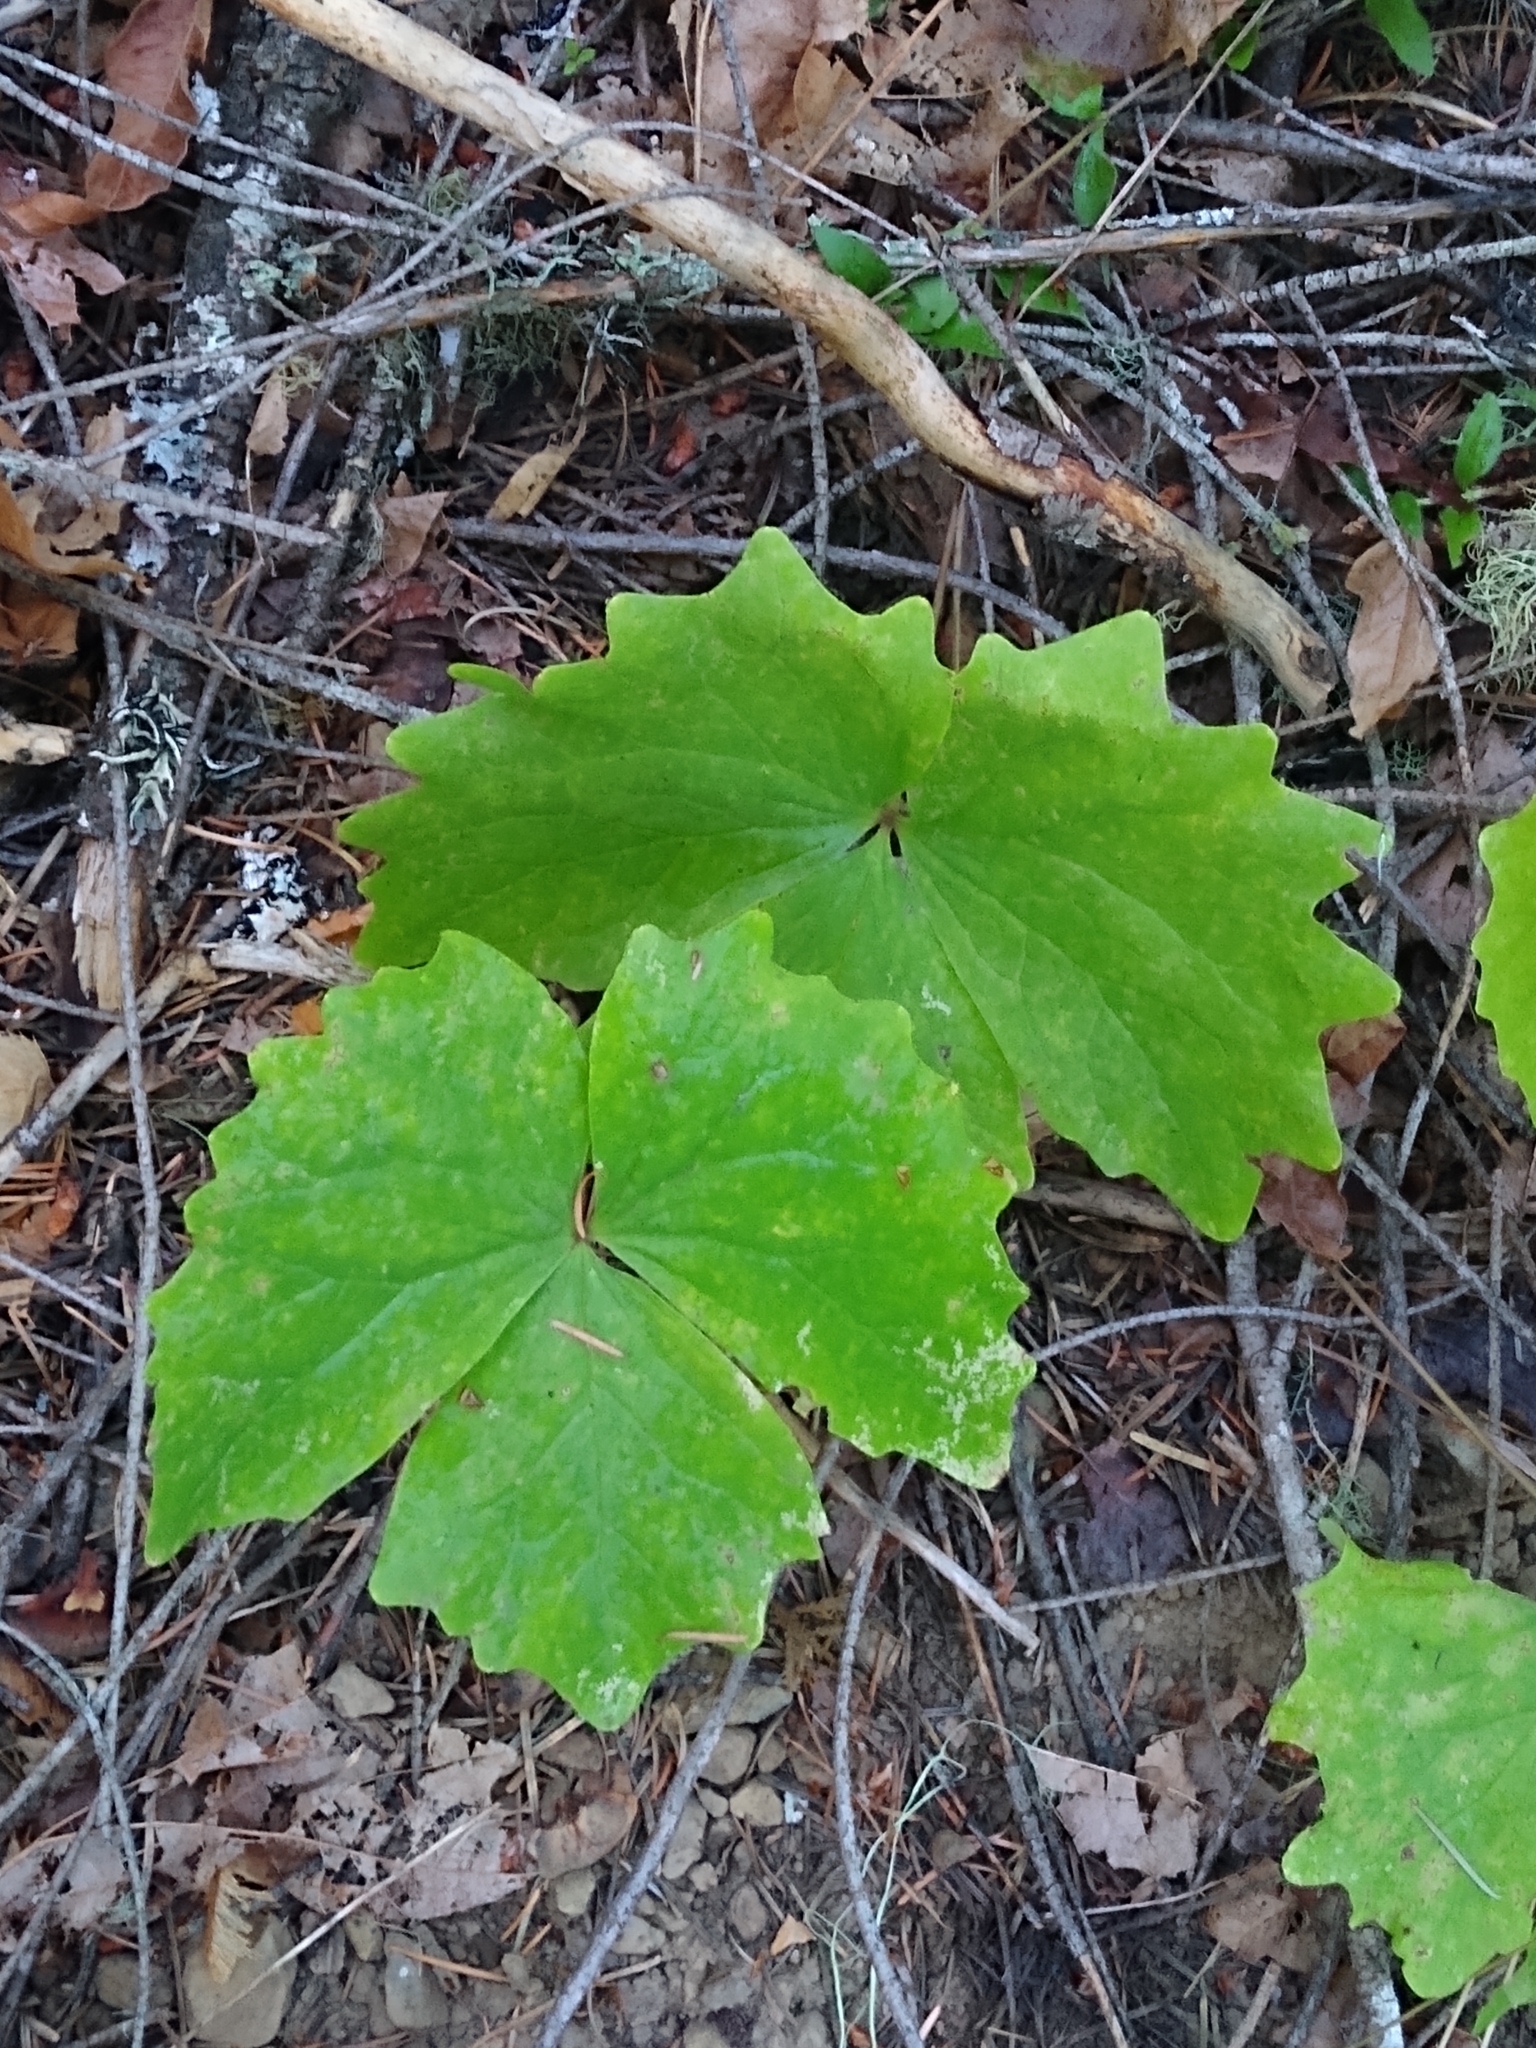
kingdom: Plantae
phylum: Tracheophyta
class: Magnoliopsida
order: Ranunculales
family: Berberidaceae
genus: Achlys
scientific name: Achlys triphylla
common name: Vanilla-leaf
